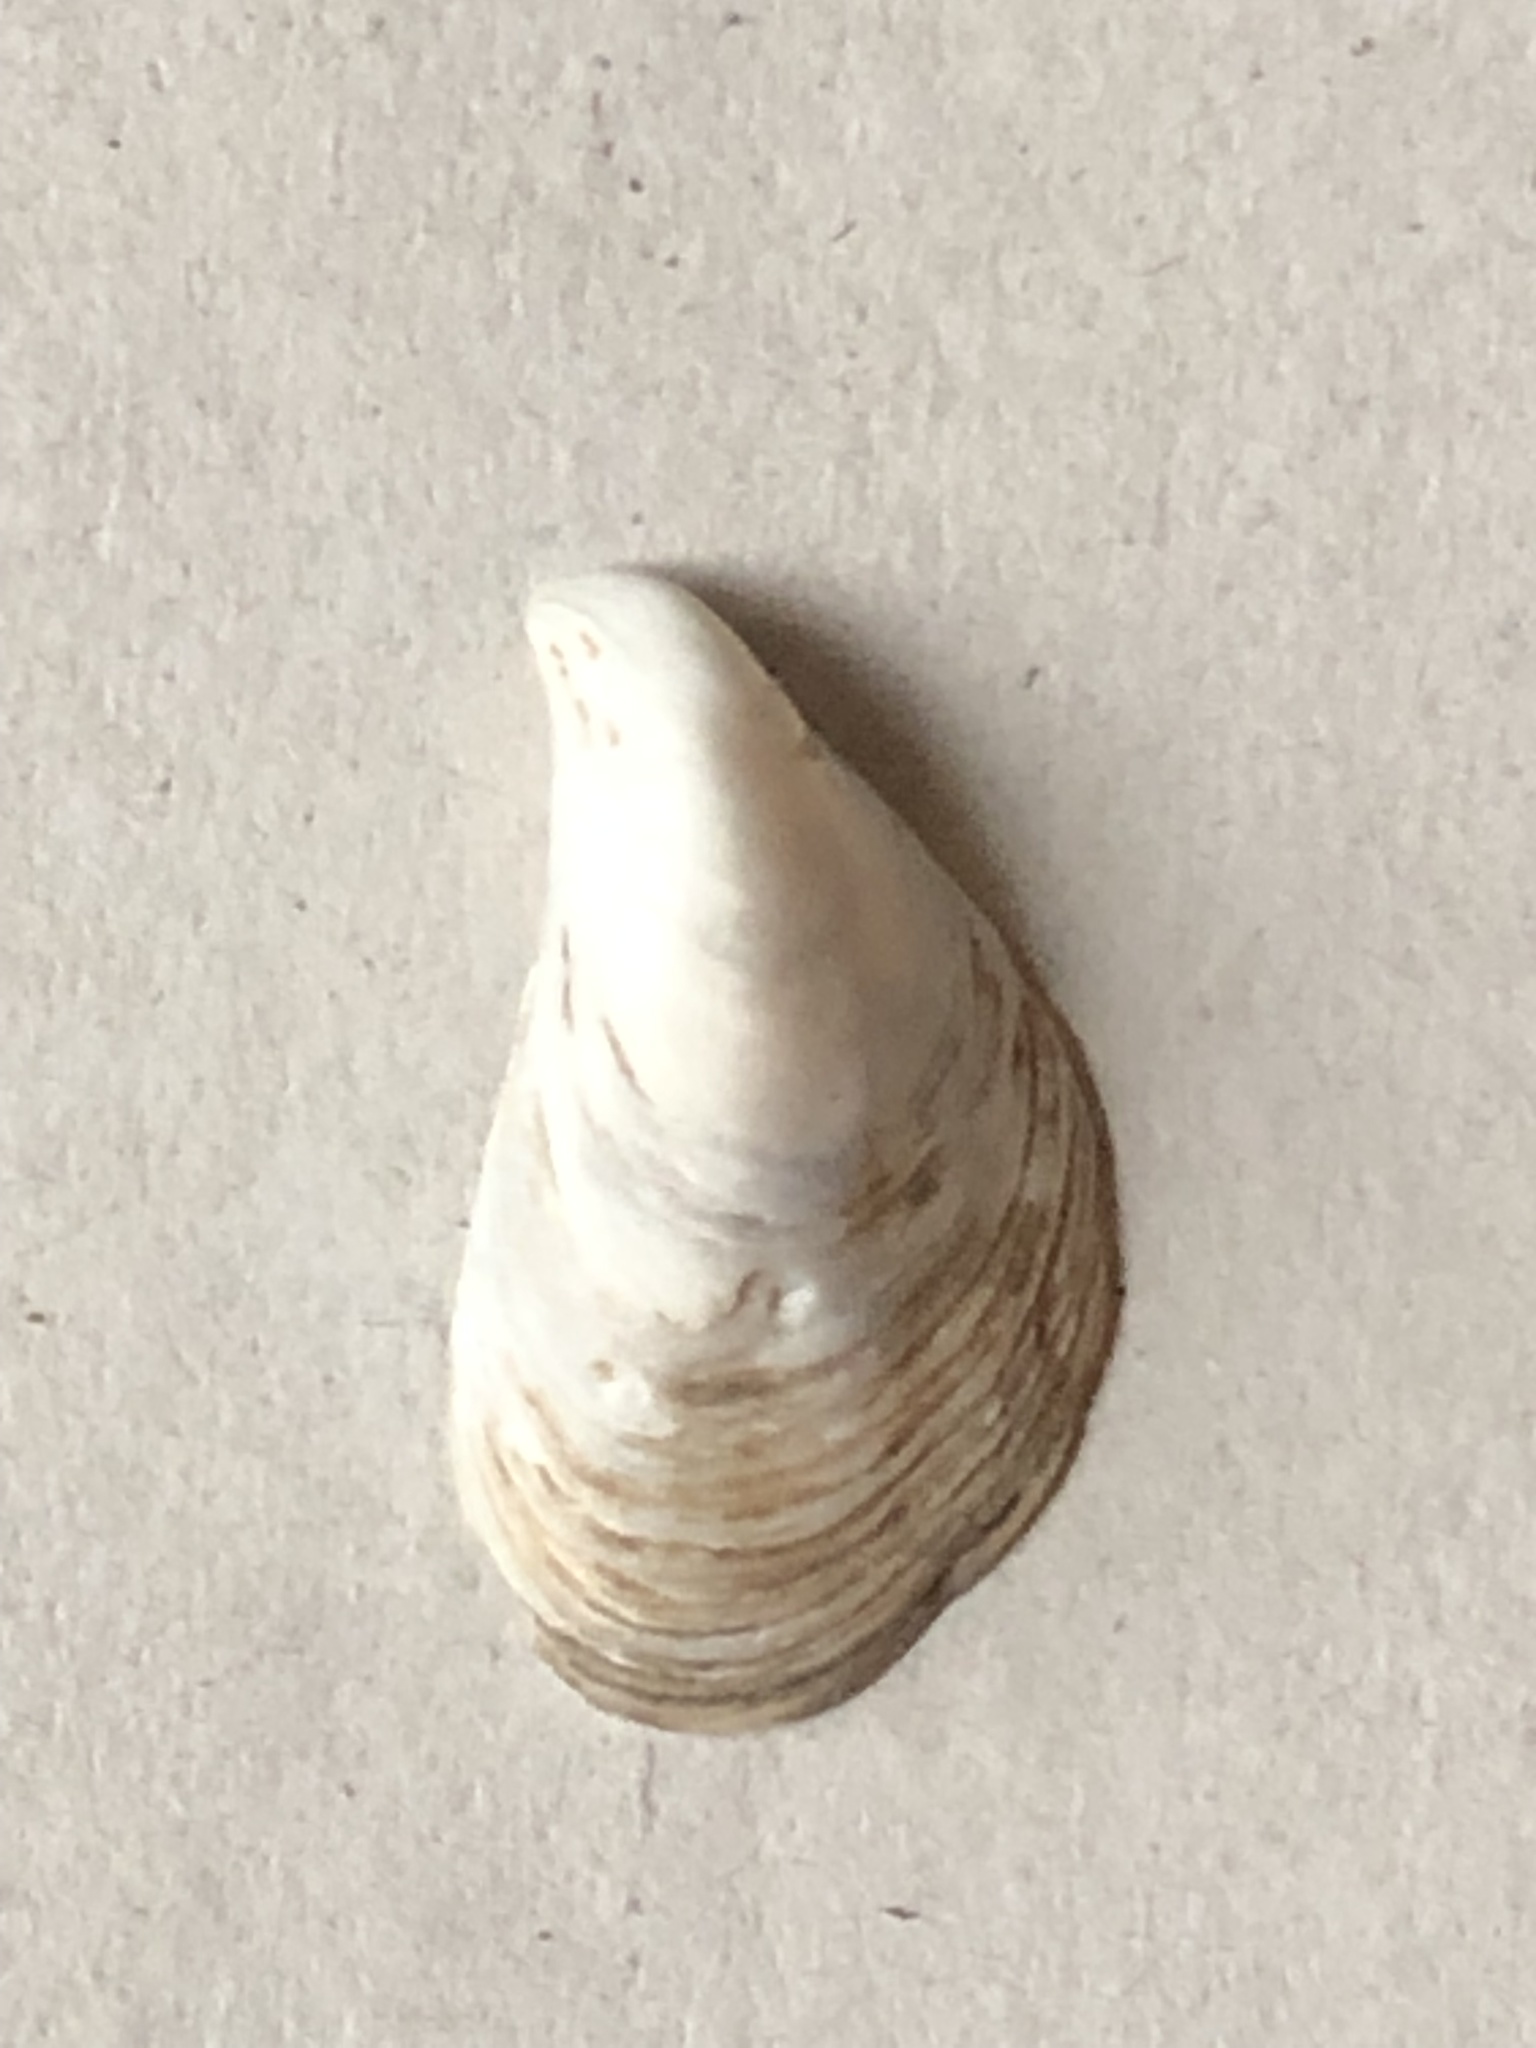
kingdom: Animalia
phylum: Mollusca
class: Bivalvia
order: Myida
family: Dreissenidae
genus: Dreissena
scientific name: Dreissena bugensis
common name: Quagga mussel
